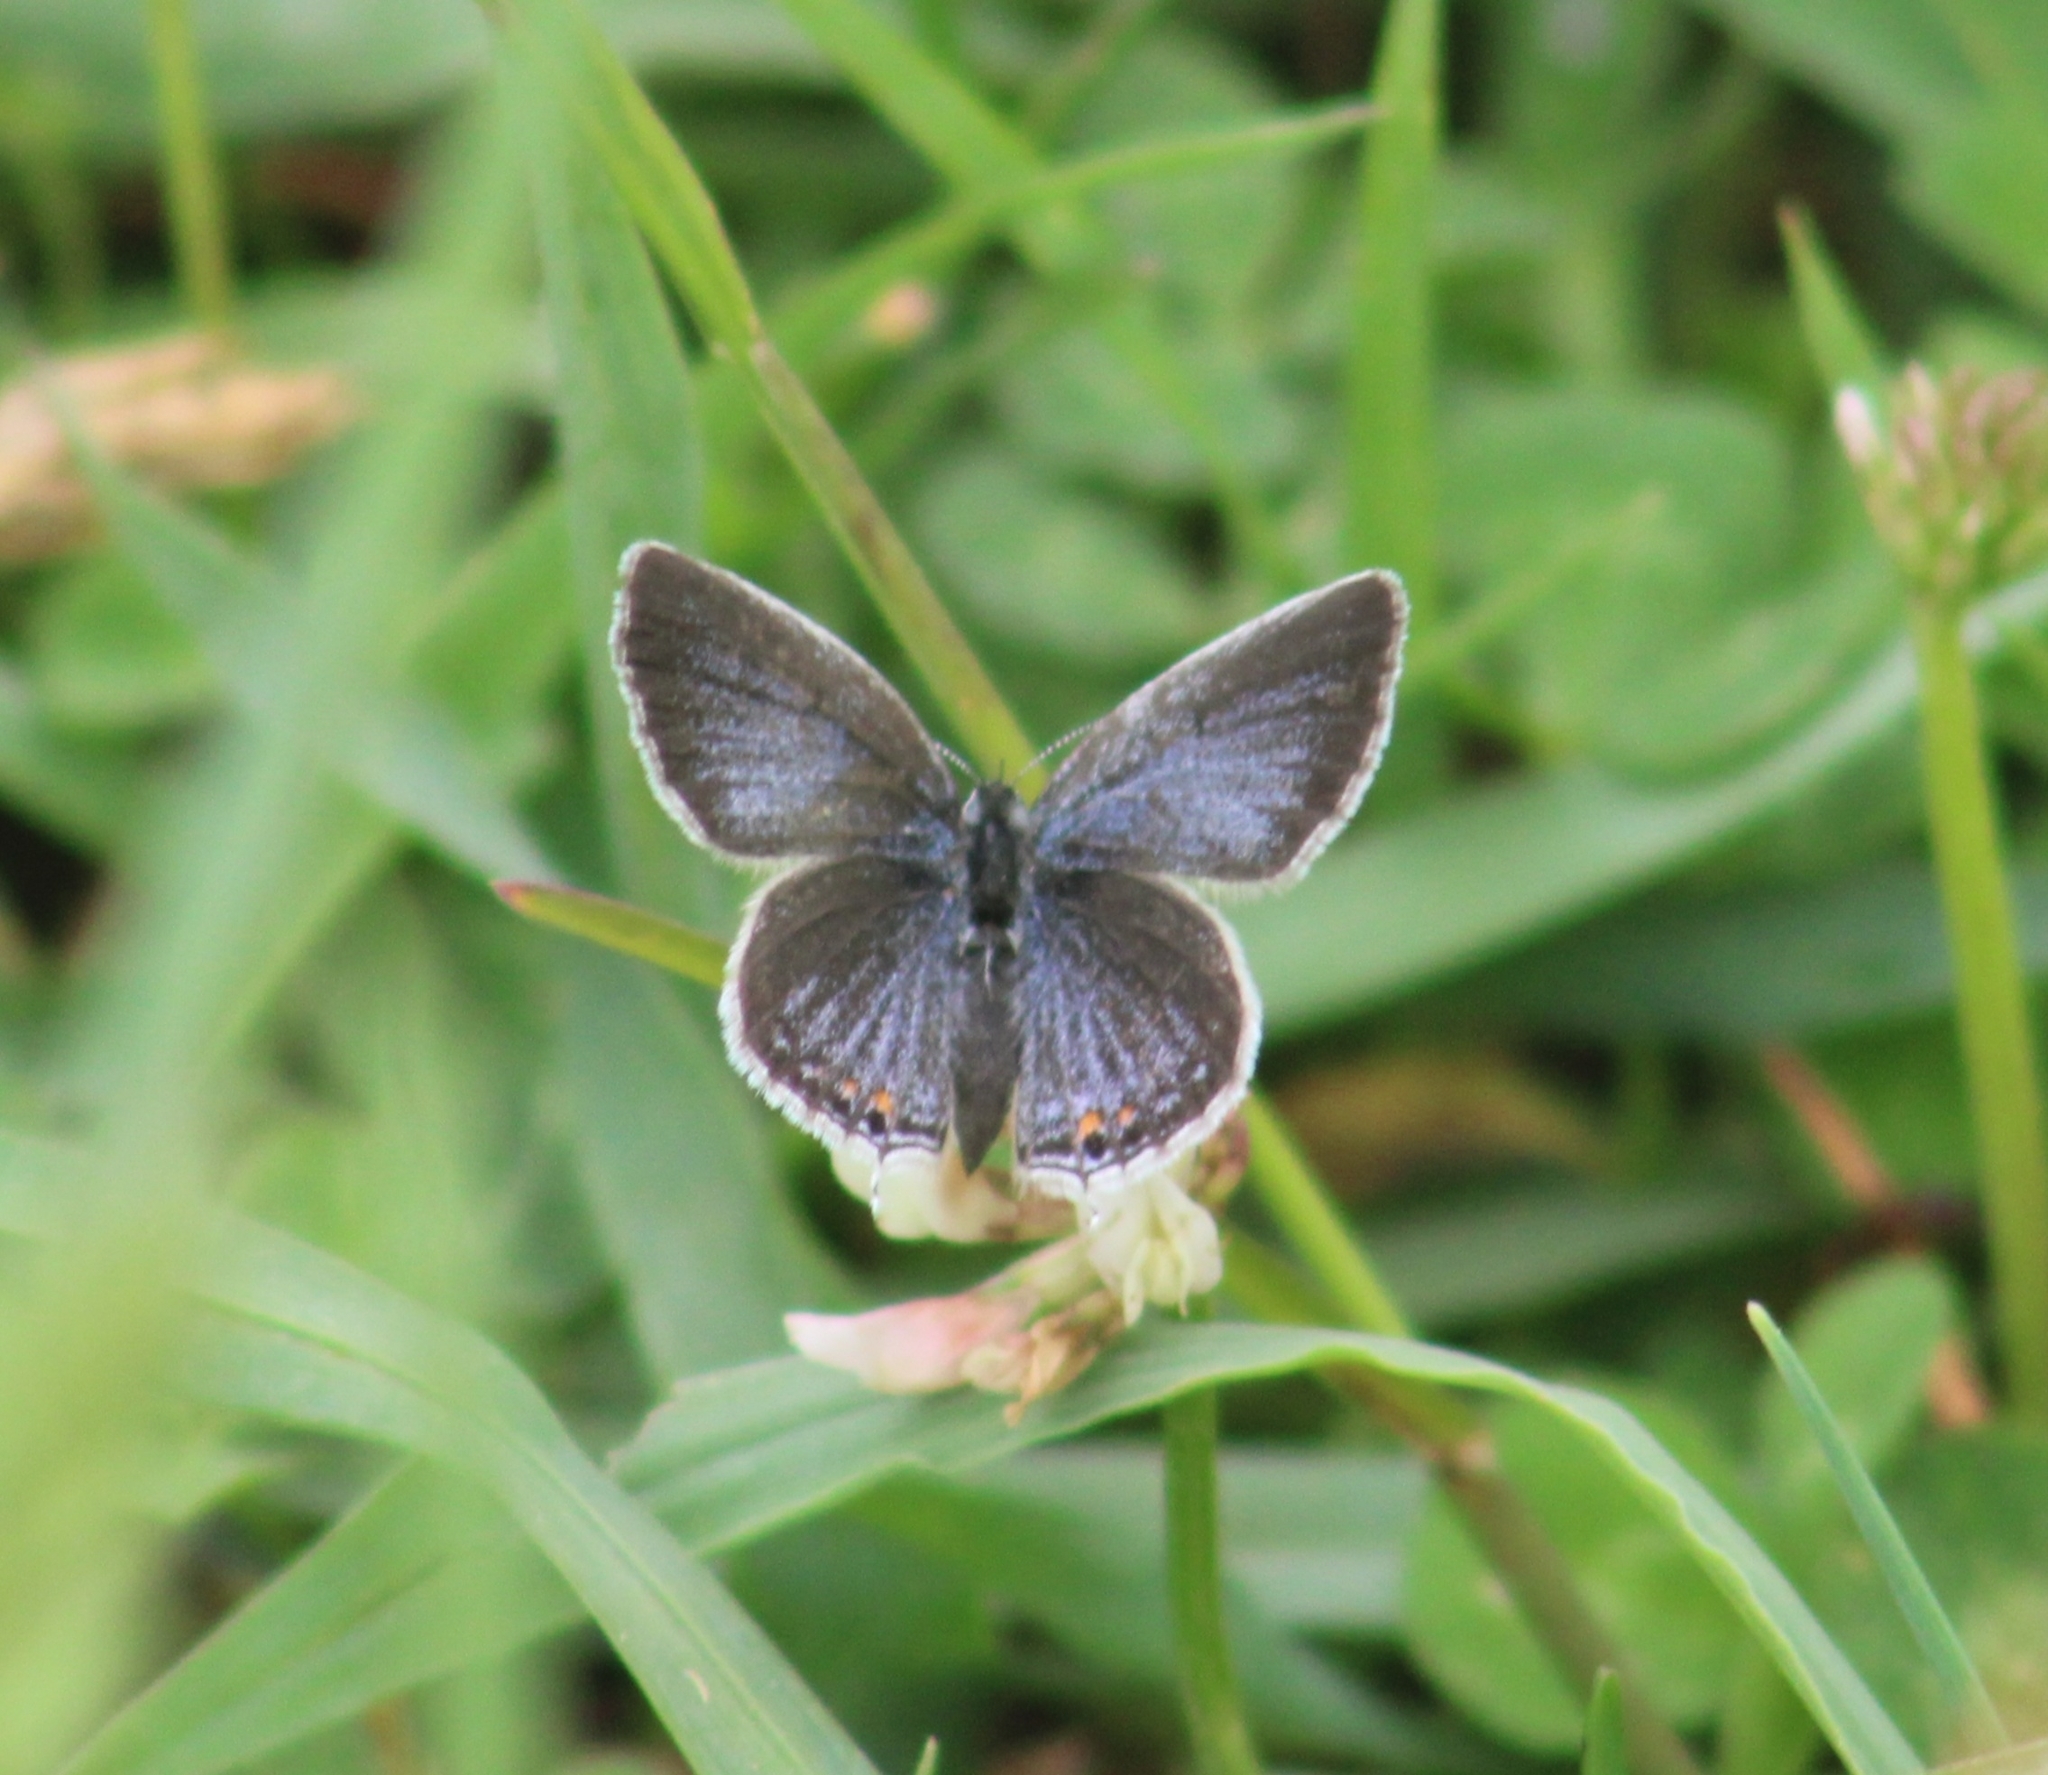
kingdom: Animalia
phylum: Arthropoda
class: Insecta
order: Lepidoptera
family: Lycaenidae
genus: Elkalyce
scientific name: Elkalyce comyntas
